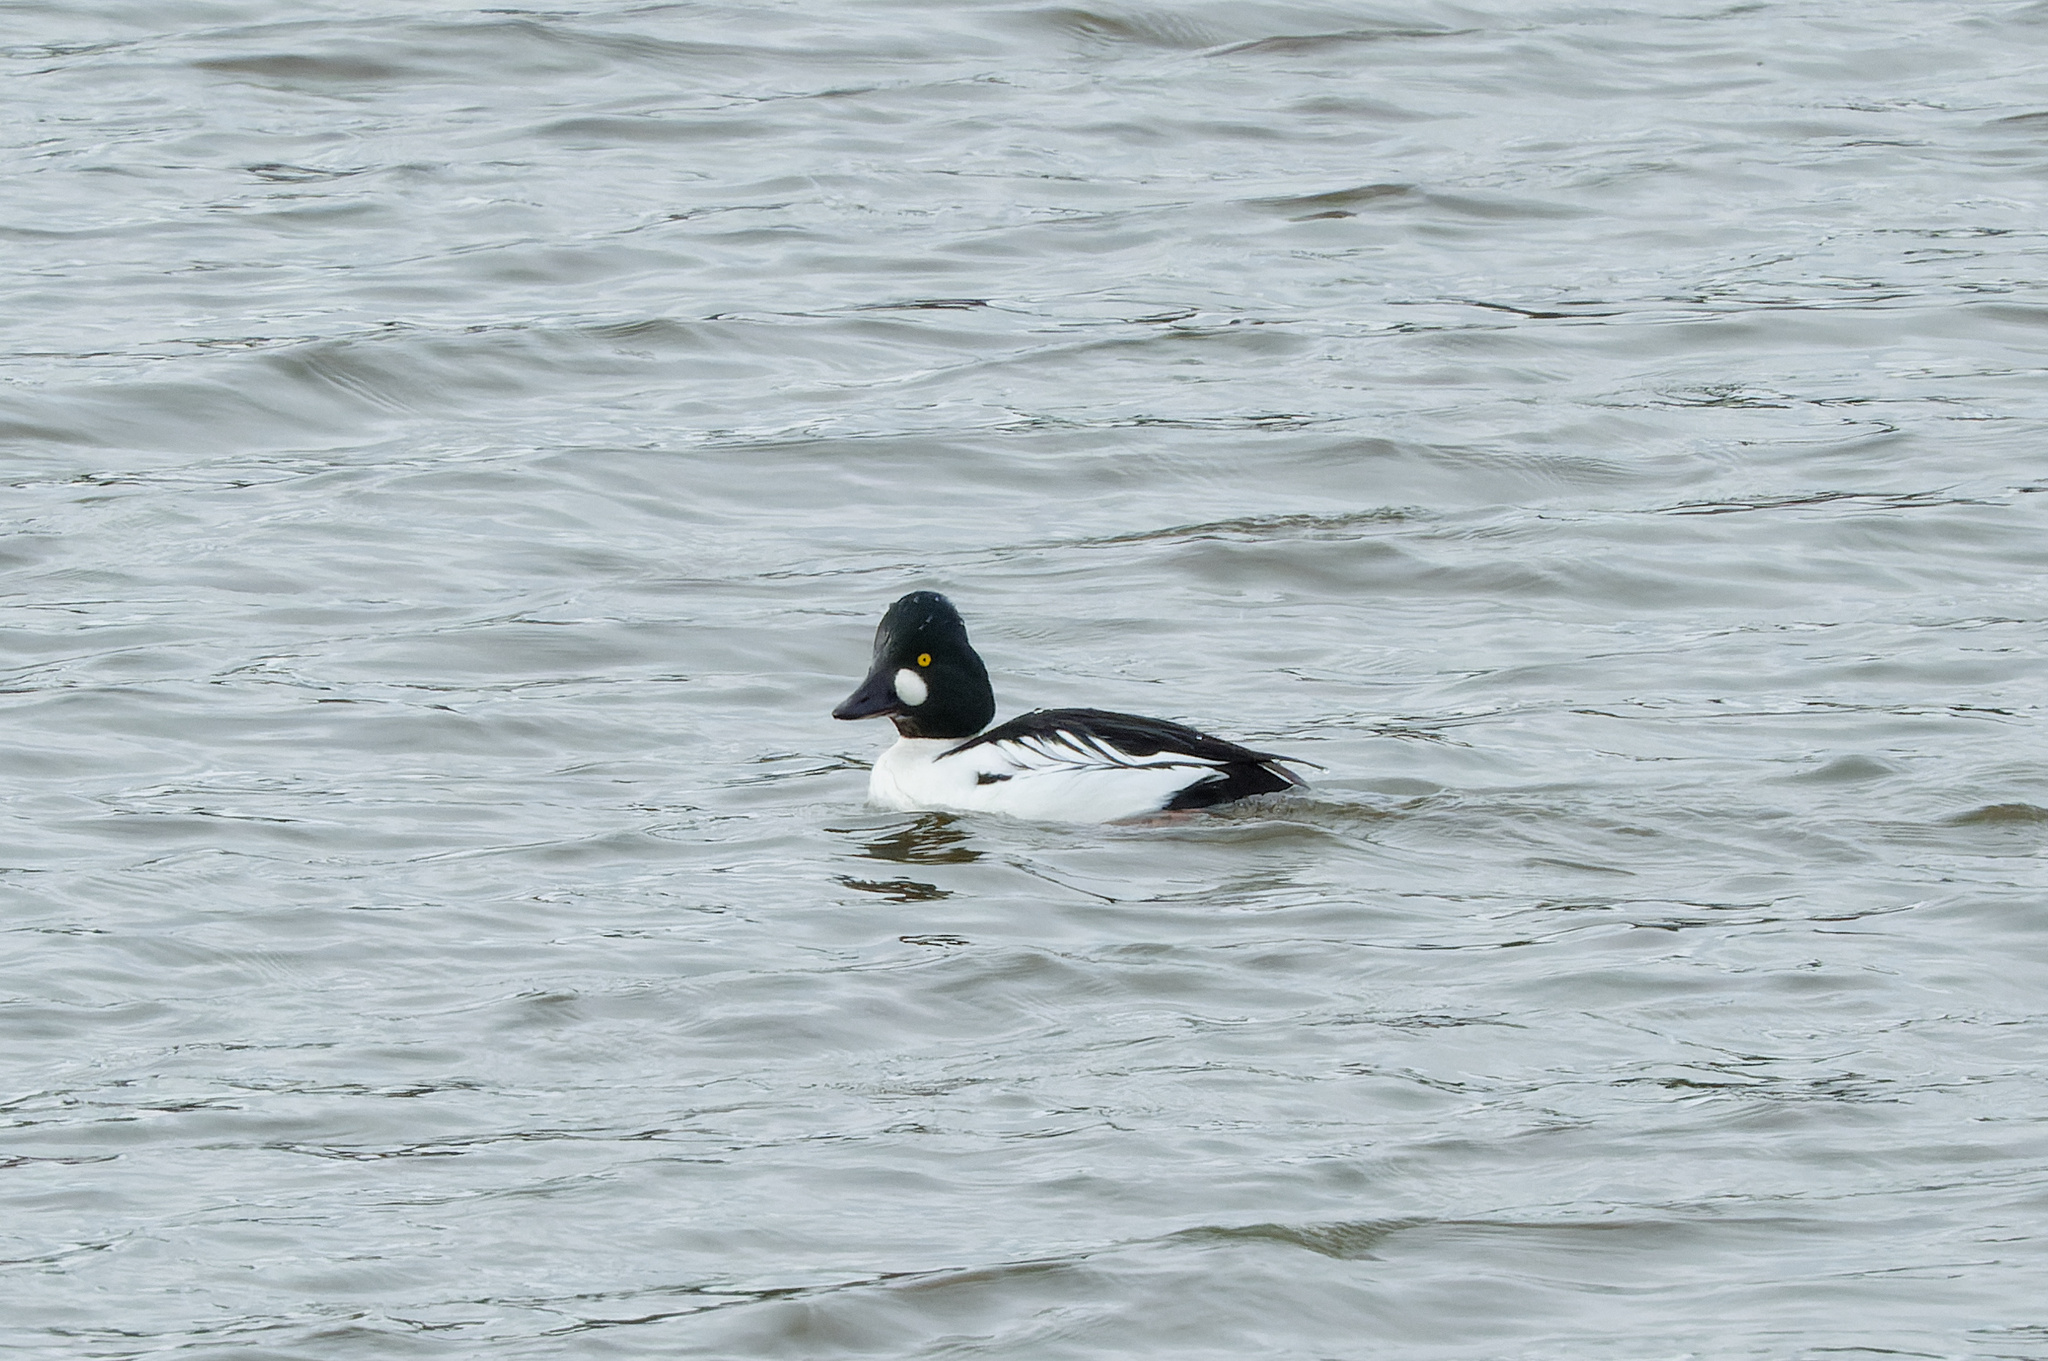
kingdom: Animalia
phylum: Chordata
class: Aves
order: Anseriformes
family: Anatidae
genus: Bucephala
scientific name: Bucephala clangula
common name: Common goldeneye
